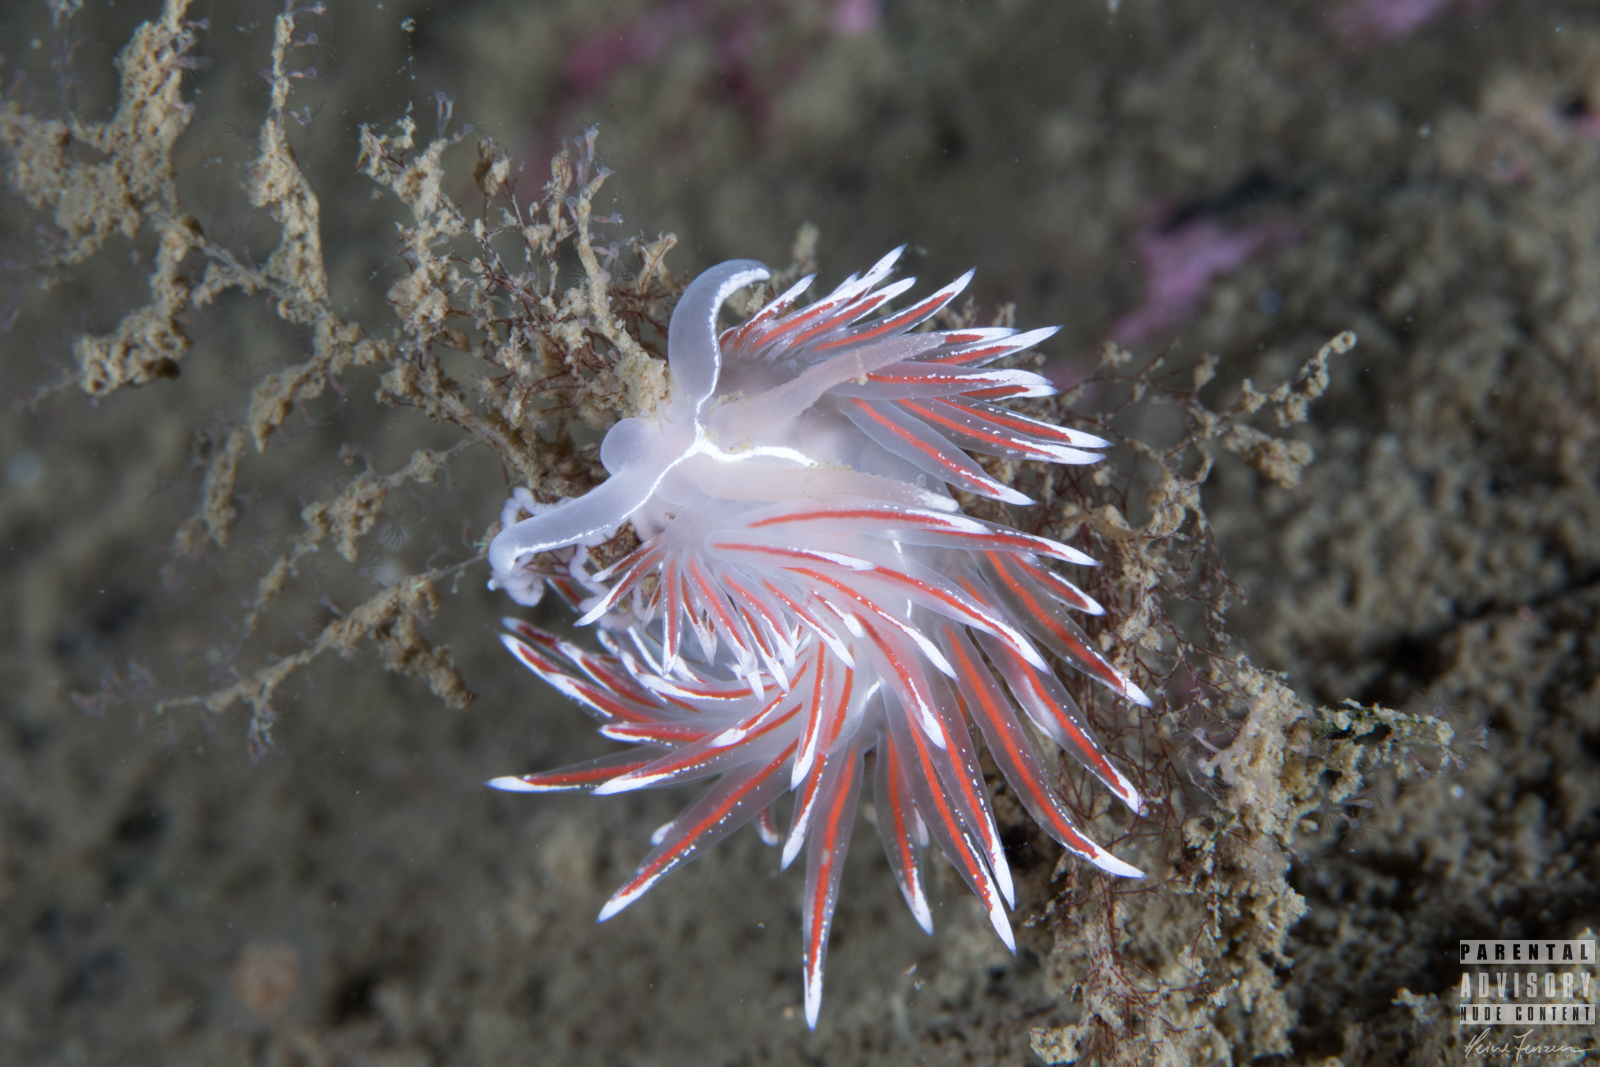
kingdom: Animalia
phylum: Mollusca
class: Gastropoda
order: Nudibranchia
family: Coryphellidae
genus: Coryphella
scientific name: Coryphella lineata
